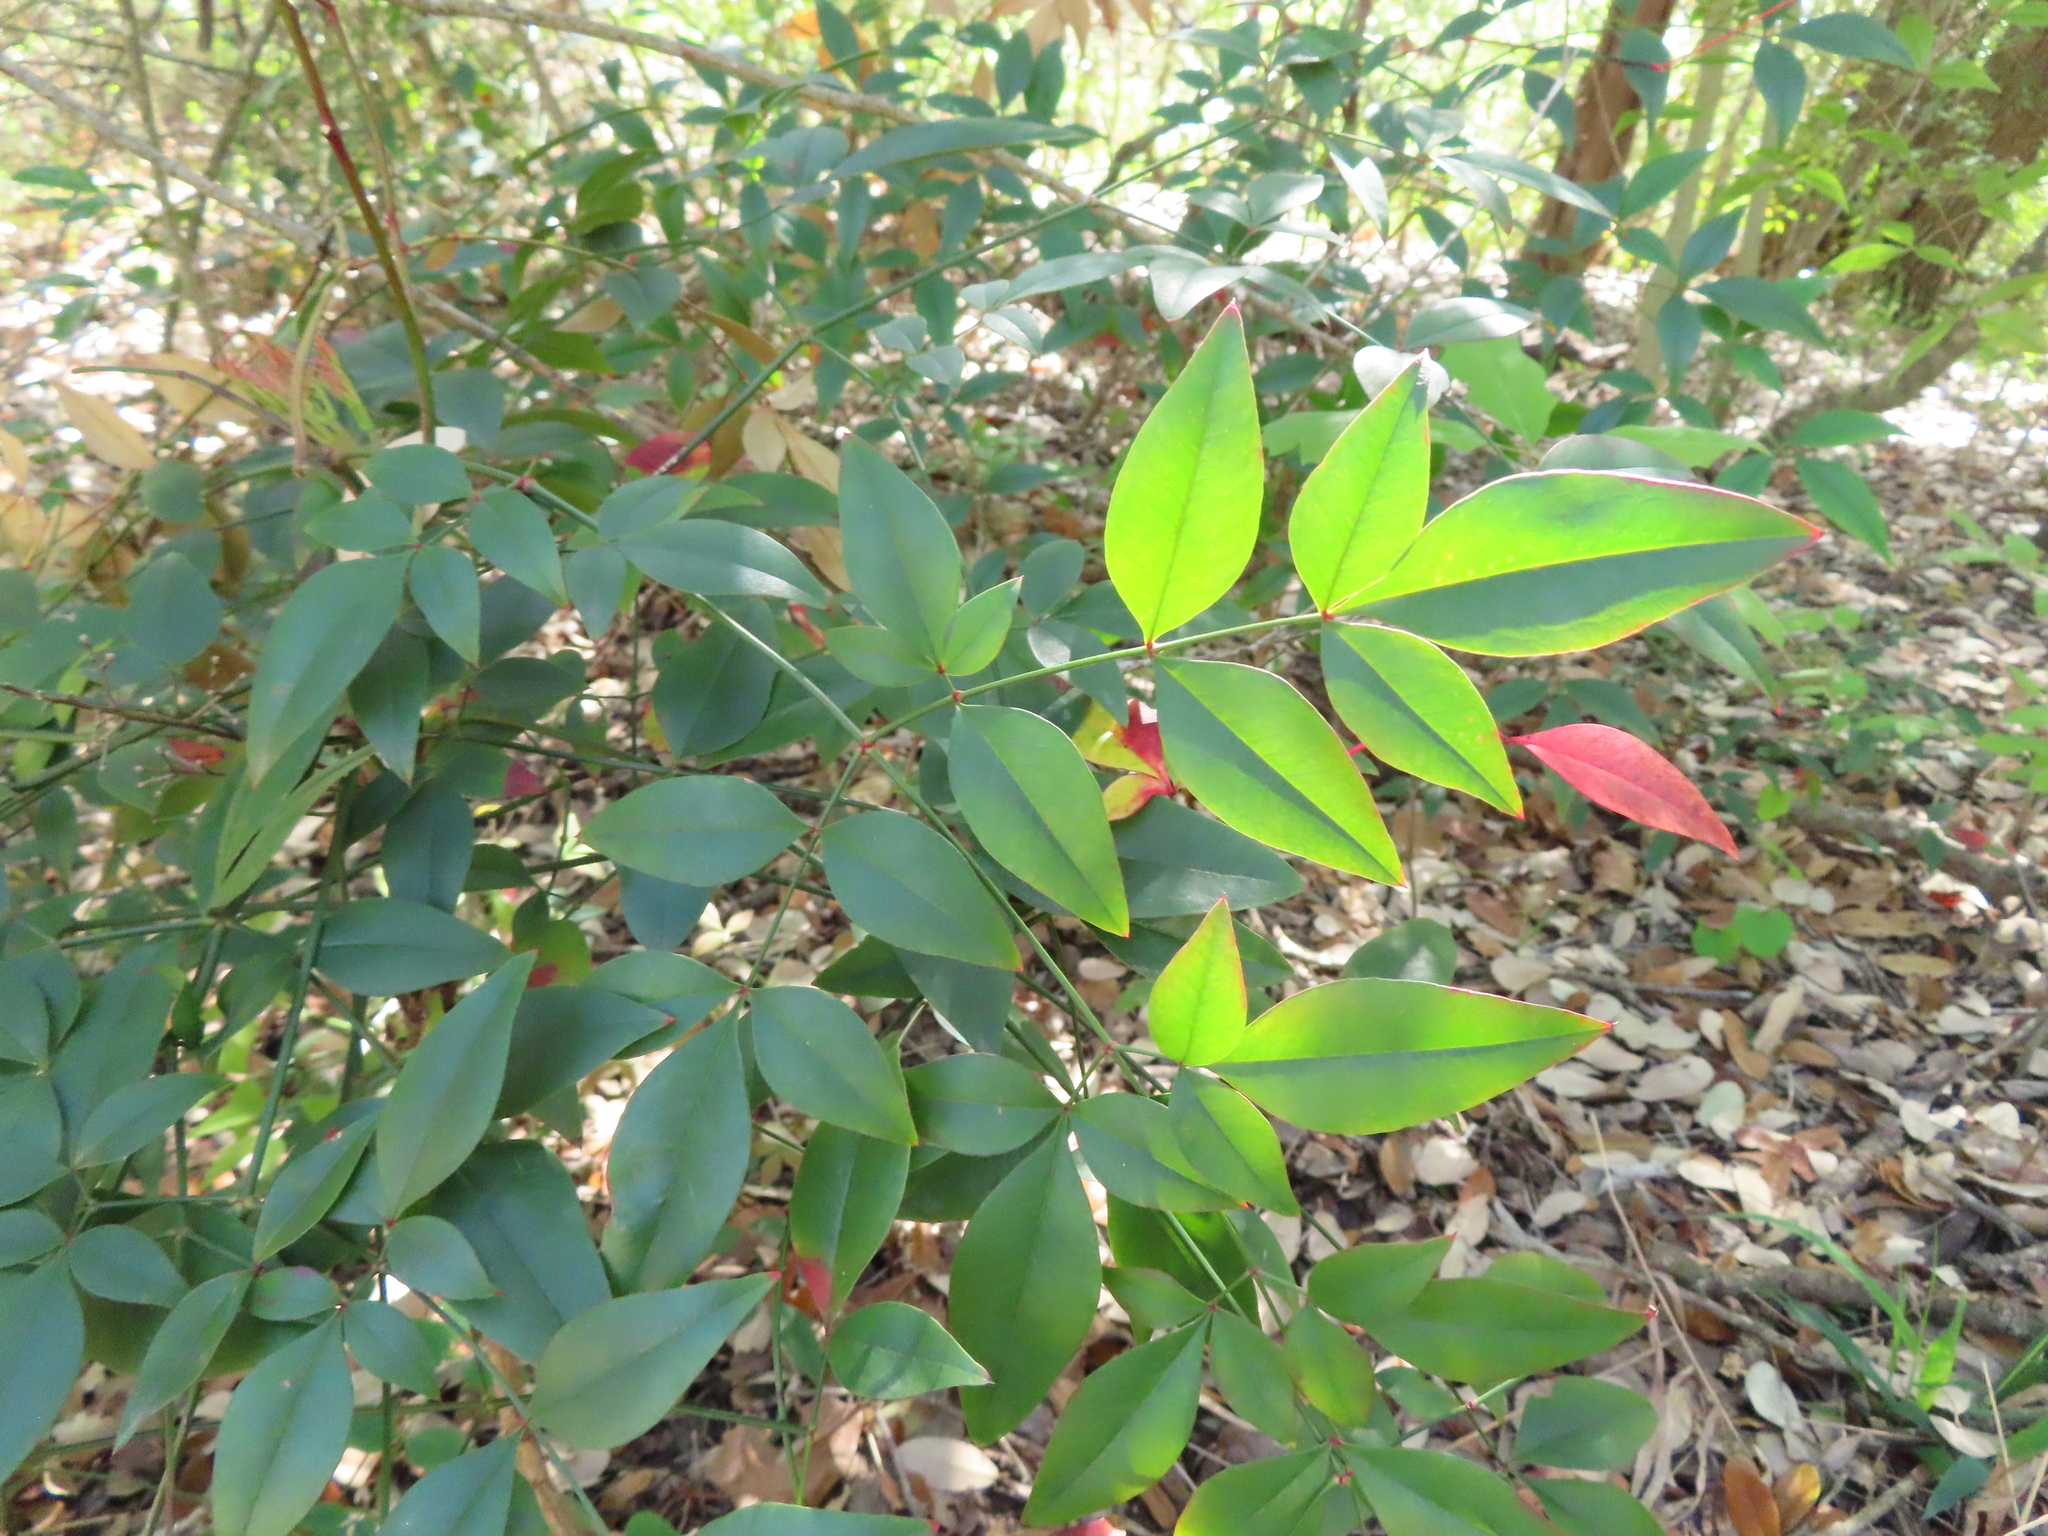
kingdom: Plantae
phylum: Tracheophyta
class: Magnoliopsida
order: Ranunculales
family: Berberidaceae
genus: Nandina
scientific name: Nandina domestica
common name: Sacred bamboo
